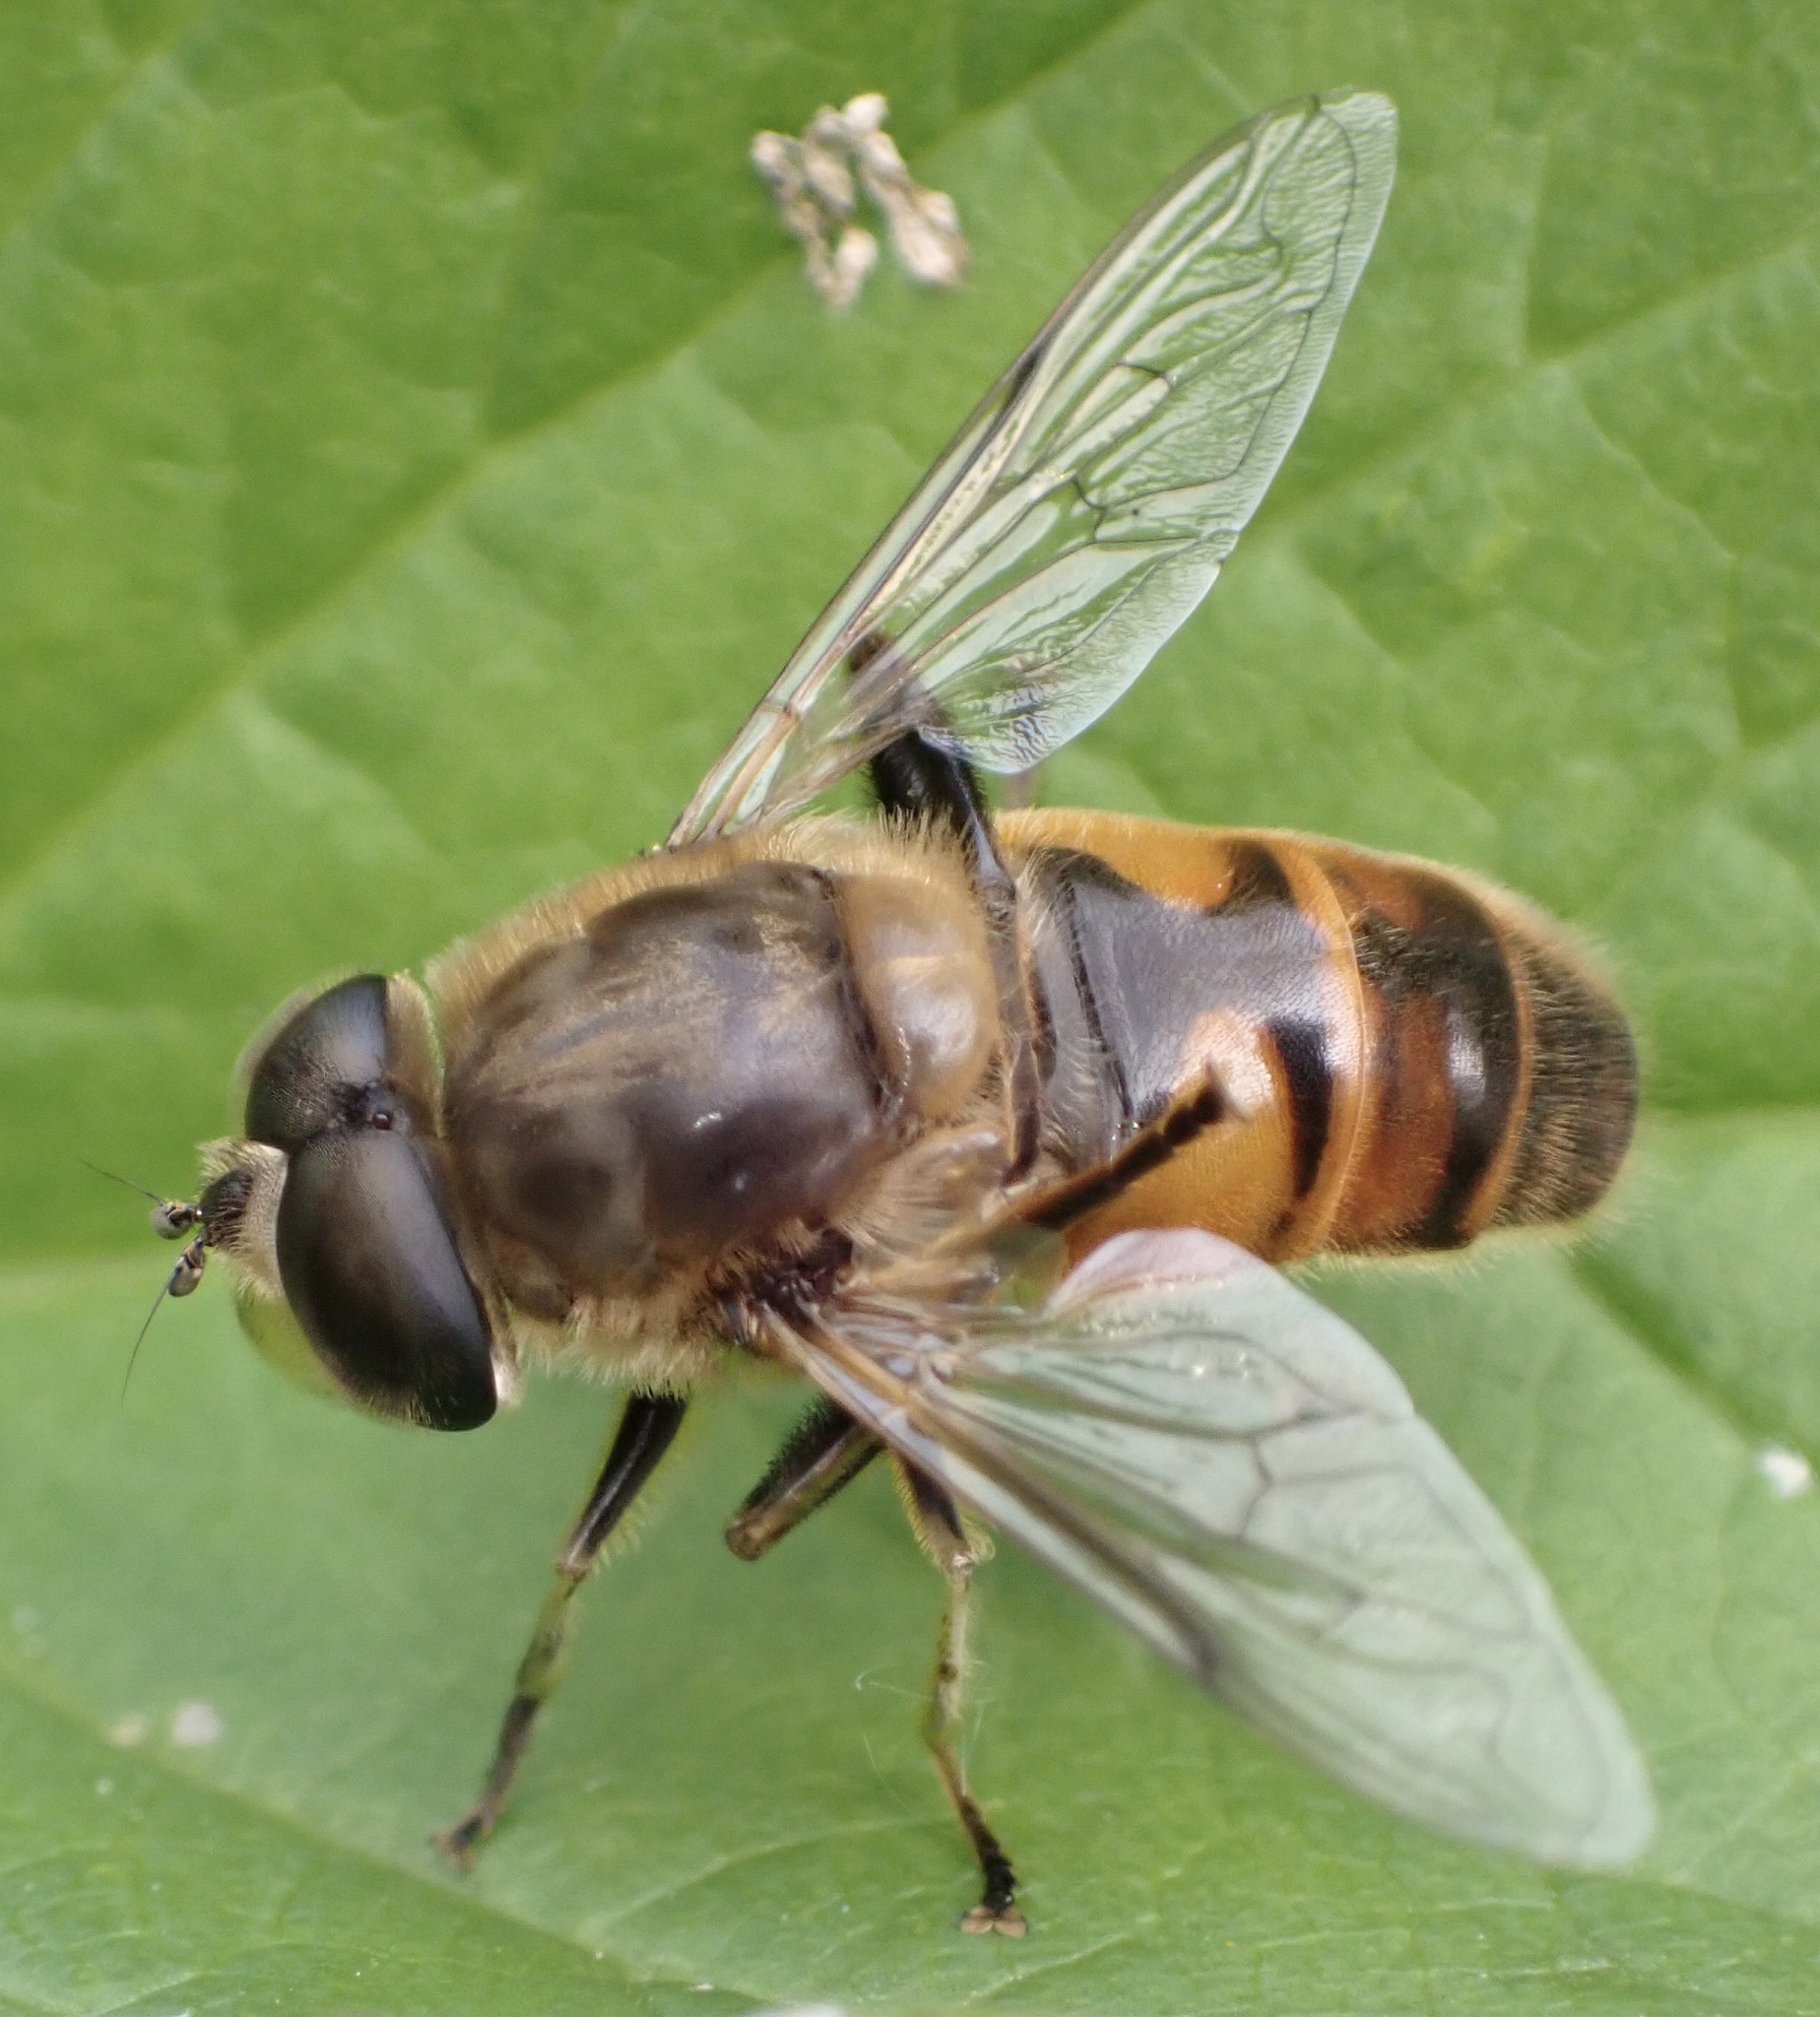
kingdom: Animalia
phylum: Arthropoda
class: Insecta
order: Diptera
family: Syrphidae
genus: Eristalis
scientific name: Eristalis tenax
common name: Drone fly
